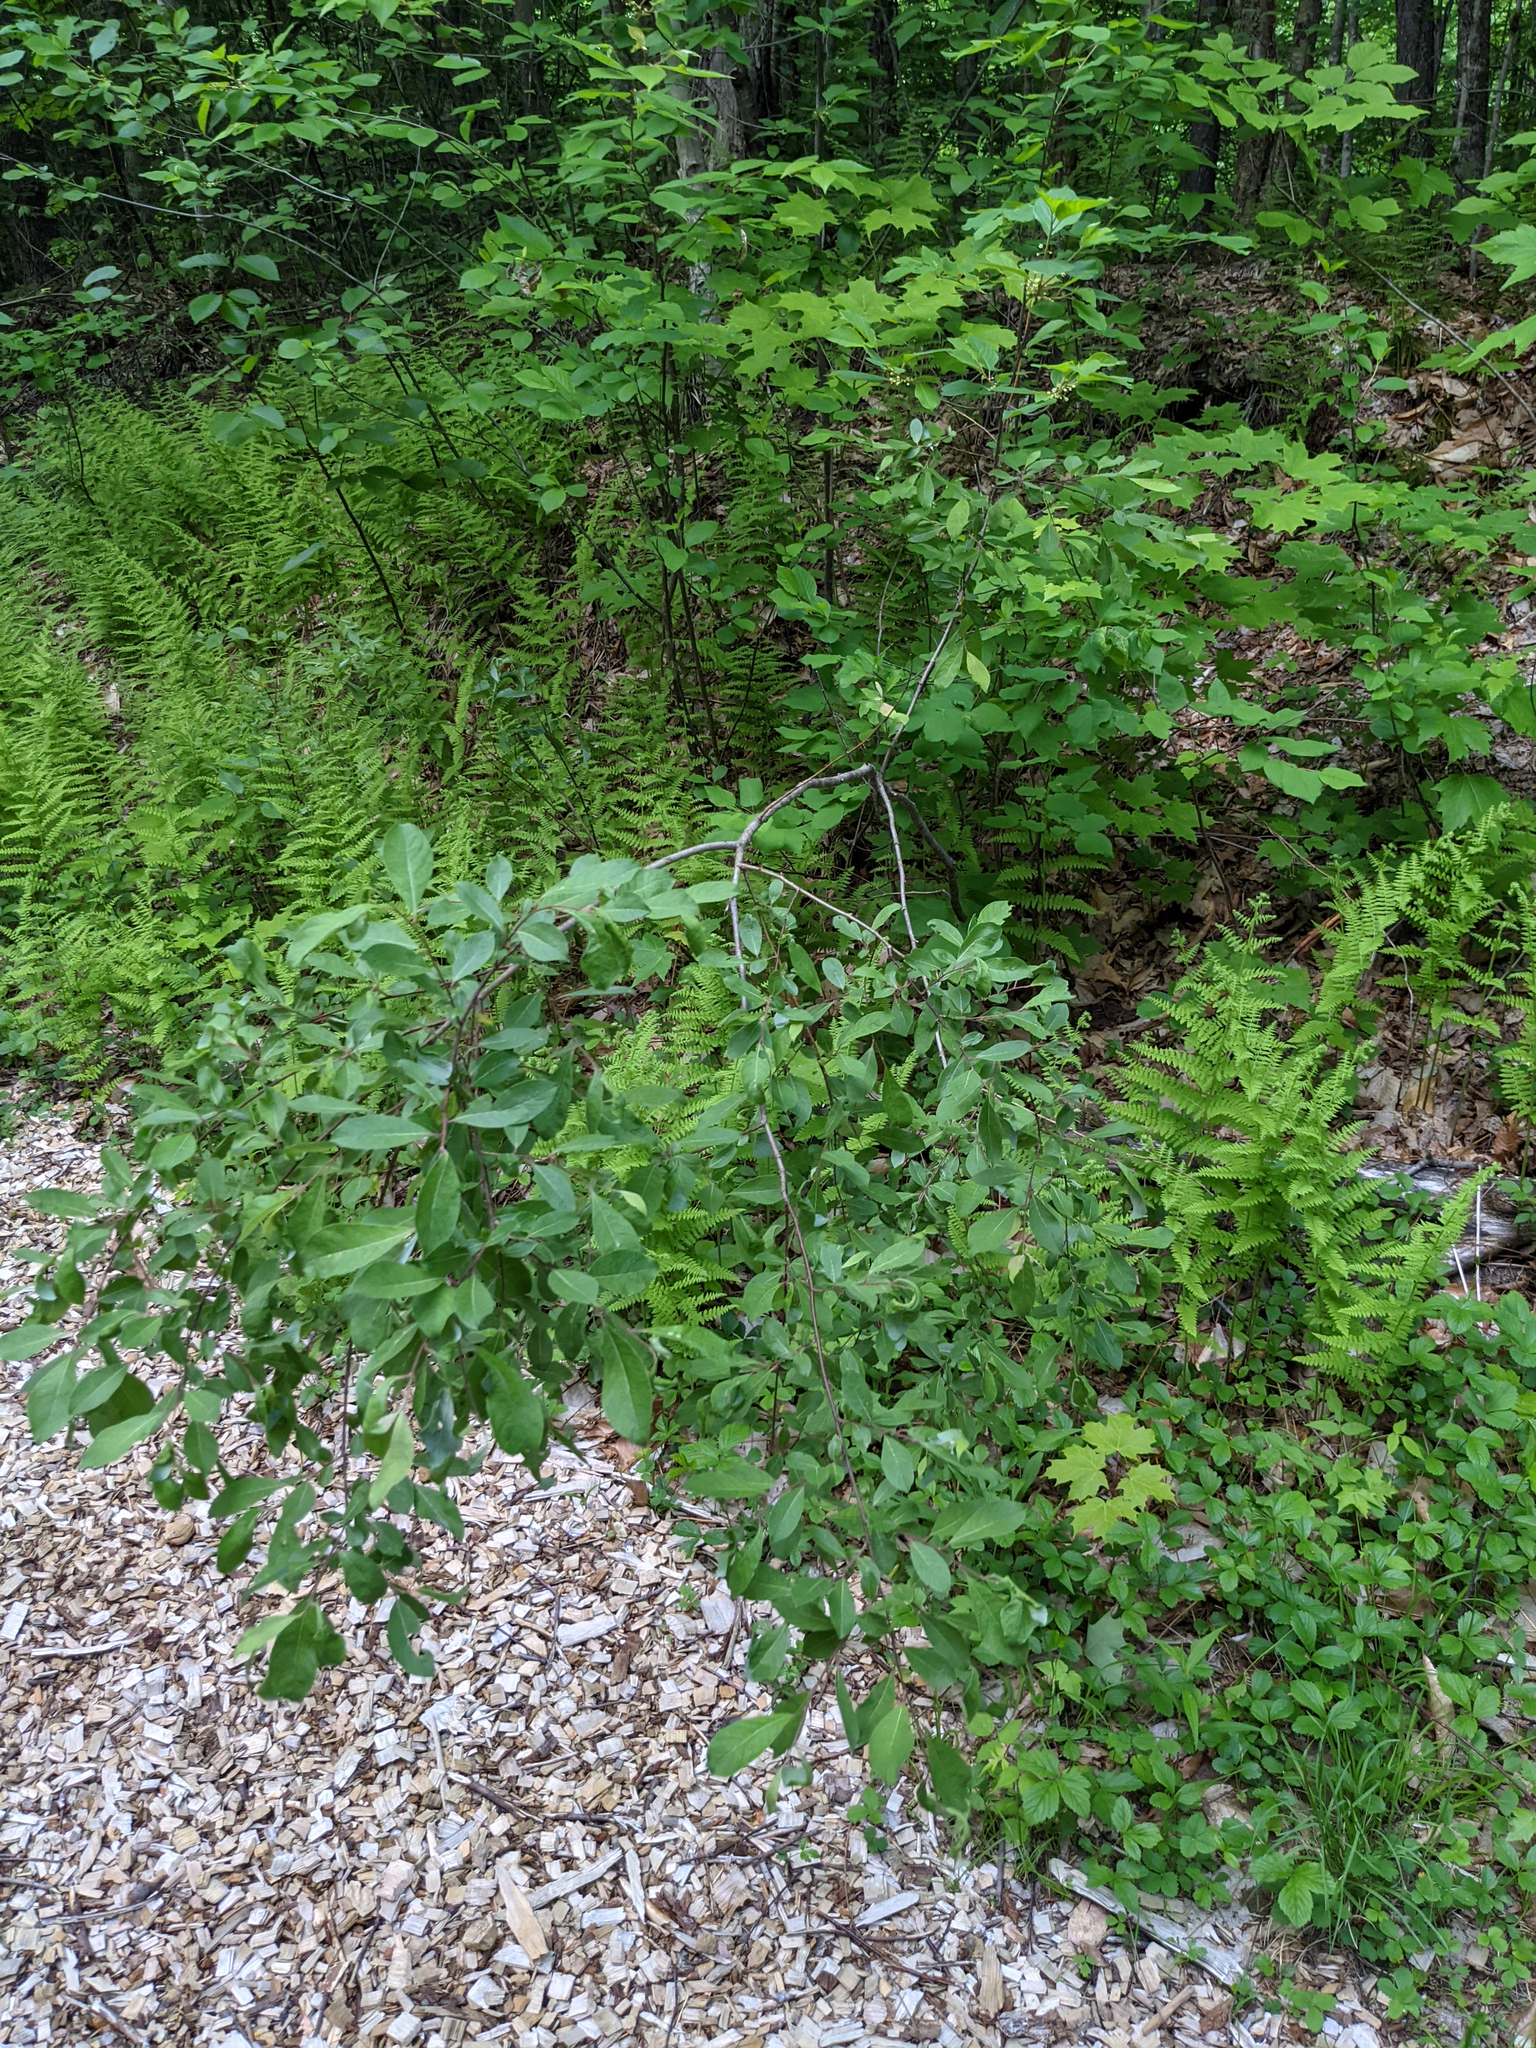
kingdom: Plantae
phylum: Tracheophyta
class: Magnoliopsida
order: Rosales
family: Elaeagnaceae
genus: Elaeagnus
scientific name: Elaeagnus umbellata
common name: Autumn olive
